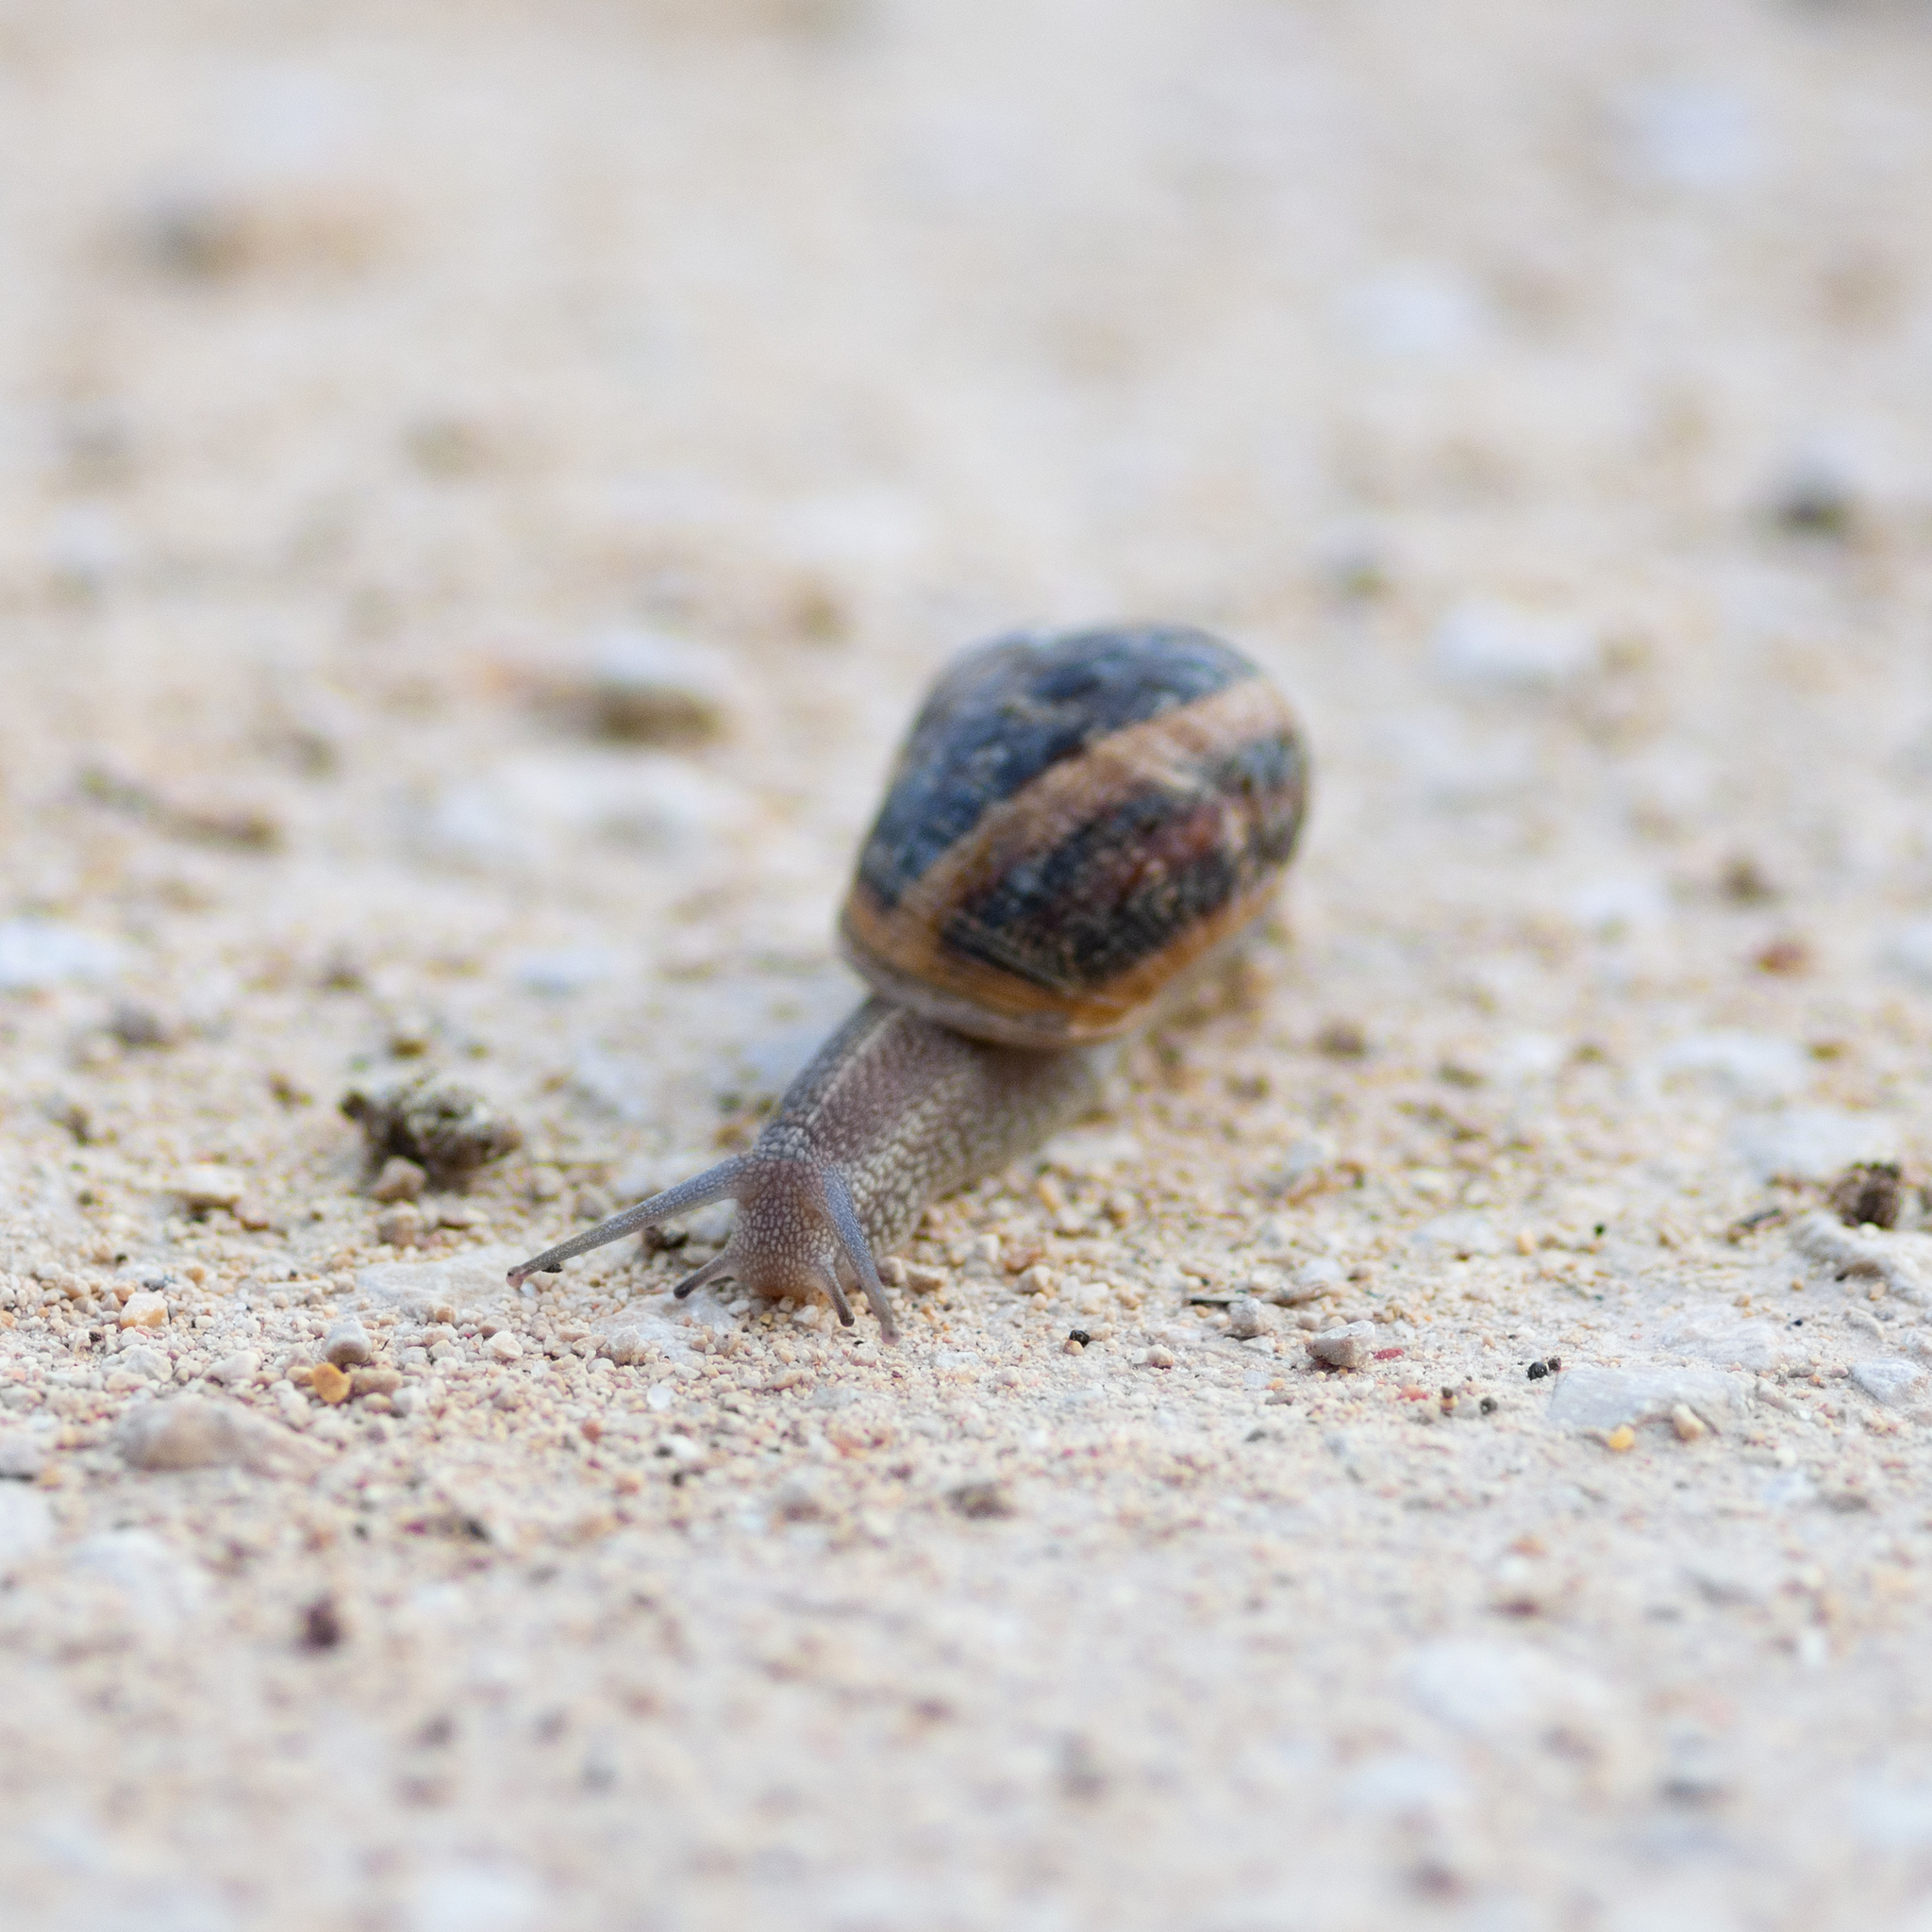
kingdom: Animalia
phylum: Mollusca
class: Gastropoda
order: Stylommatophora
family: Helicidae
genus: Cornu
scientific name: Cornu aspersum
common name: Brown garden snail
